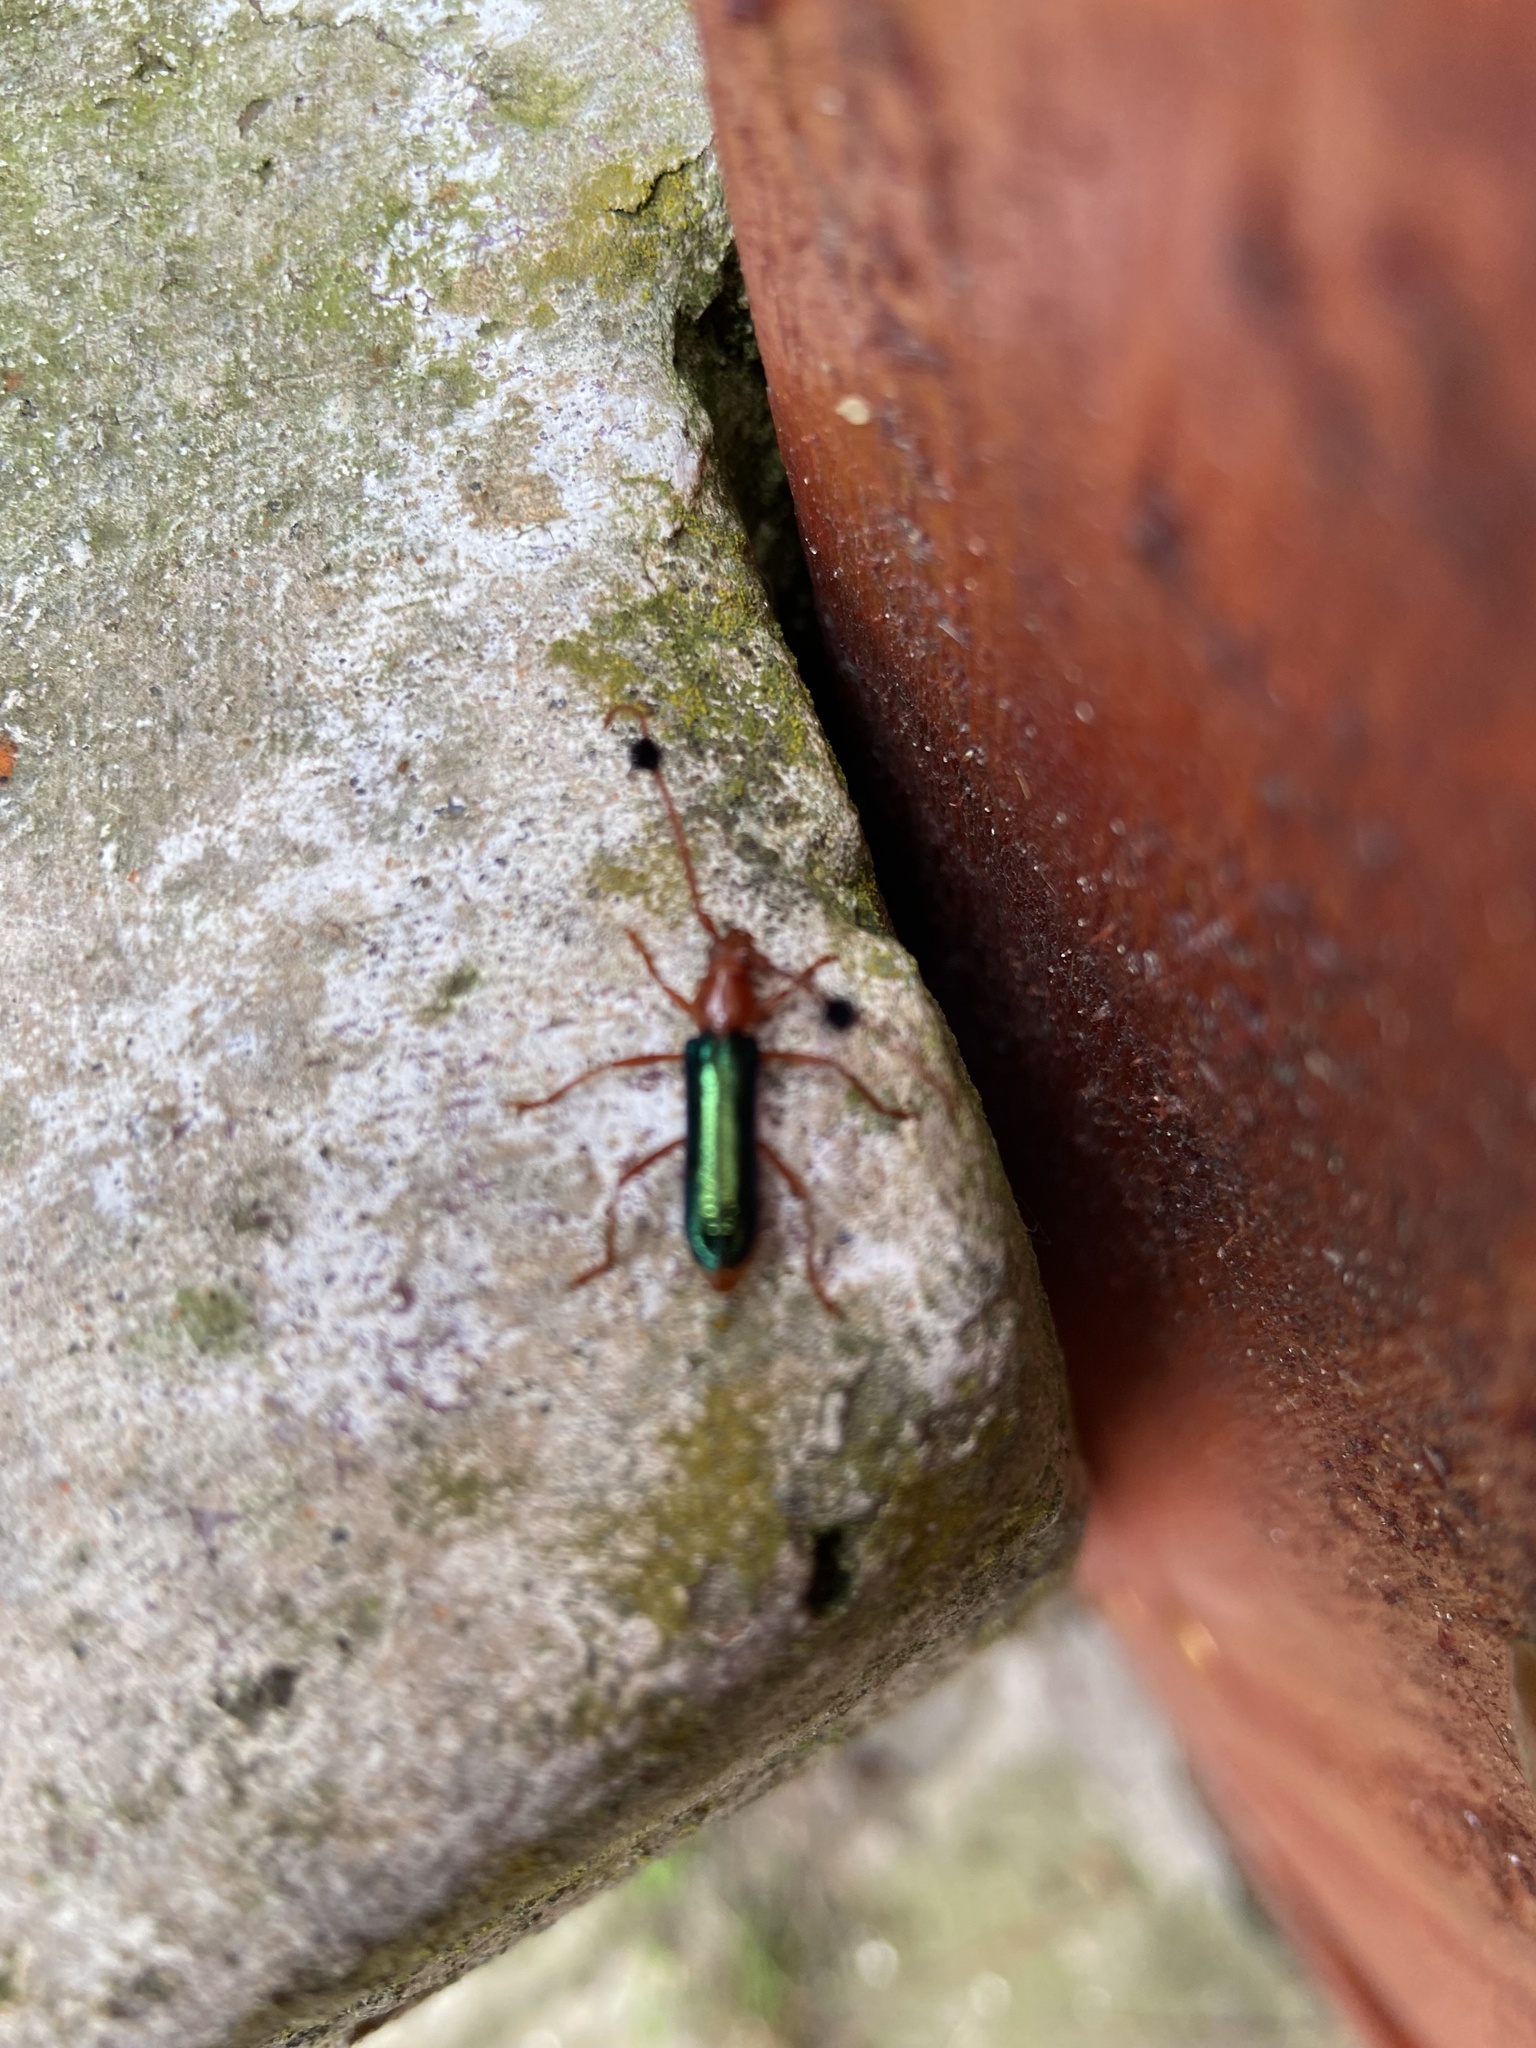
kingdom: Animalia
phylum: Arthropoda
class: Insecta
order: Coleoptera
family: Cerambycidae
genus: Compsocerus
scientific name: Compsocerus violaceus
